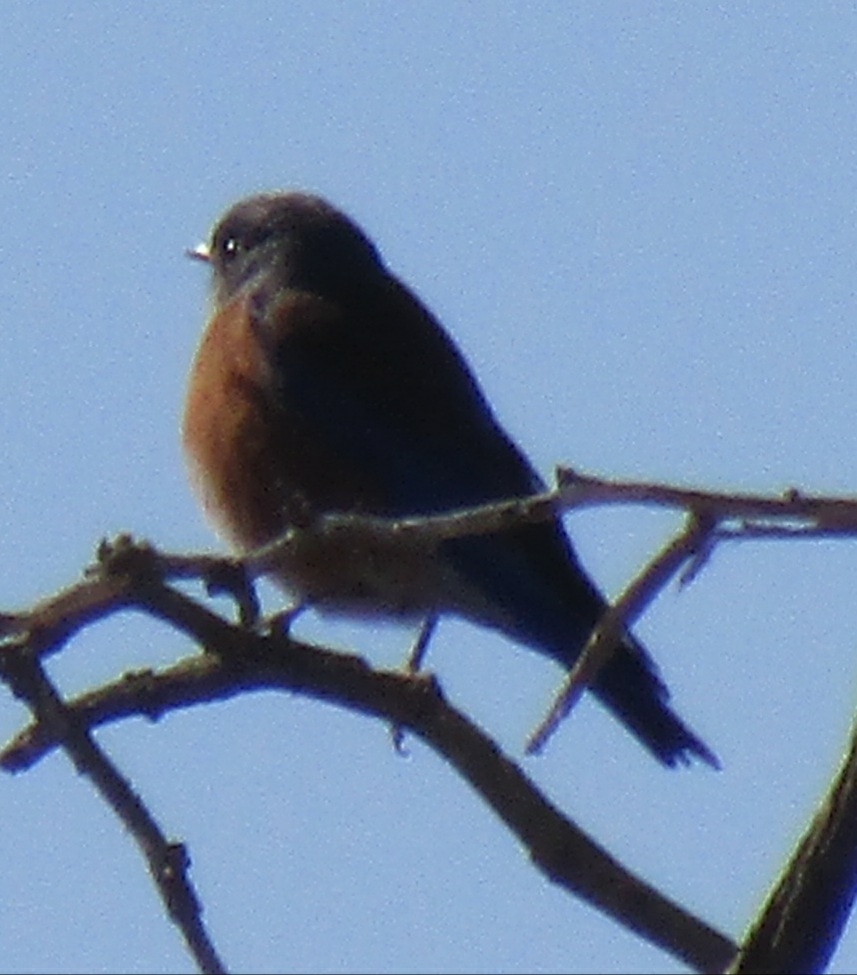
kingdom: Animalia
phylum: Chordata
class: Aves
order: Passeriformes
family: Turdidae
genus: Sialia
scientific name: Sialia mexicana
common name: Western bluebird
